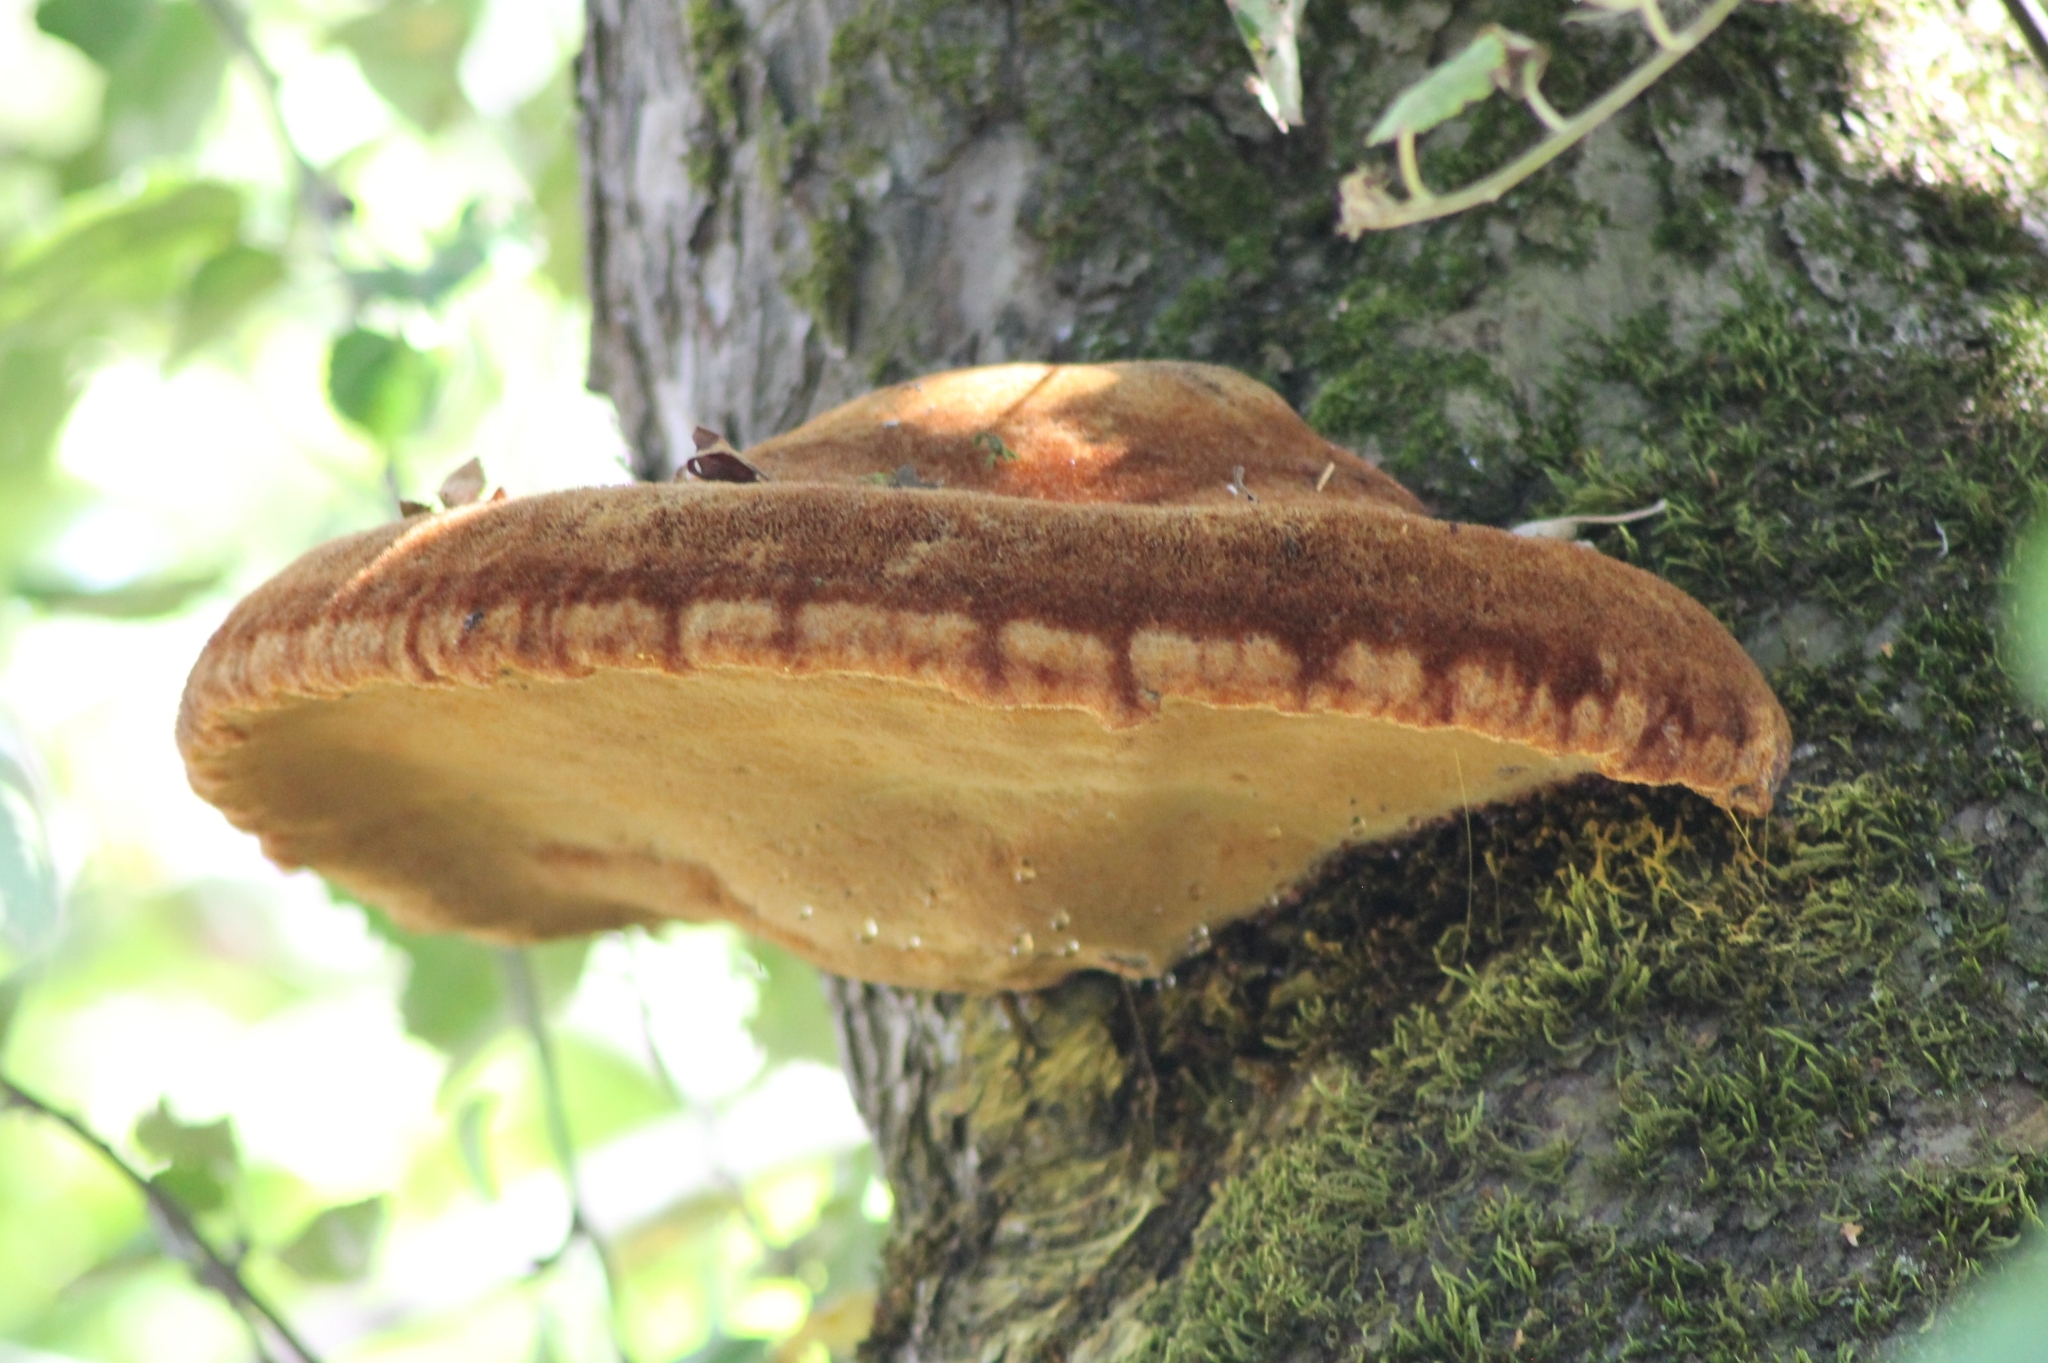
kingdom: Fungi
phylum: Basidiomycota
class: Agaricomycetes
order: Hymenochaetales
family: Hymenochaetaceae
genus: Inonotus
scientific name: Inonotus hispidus
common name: Shaggy bracket
